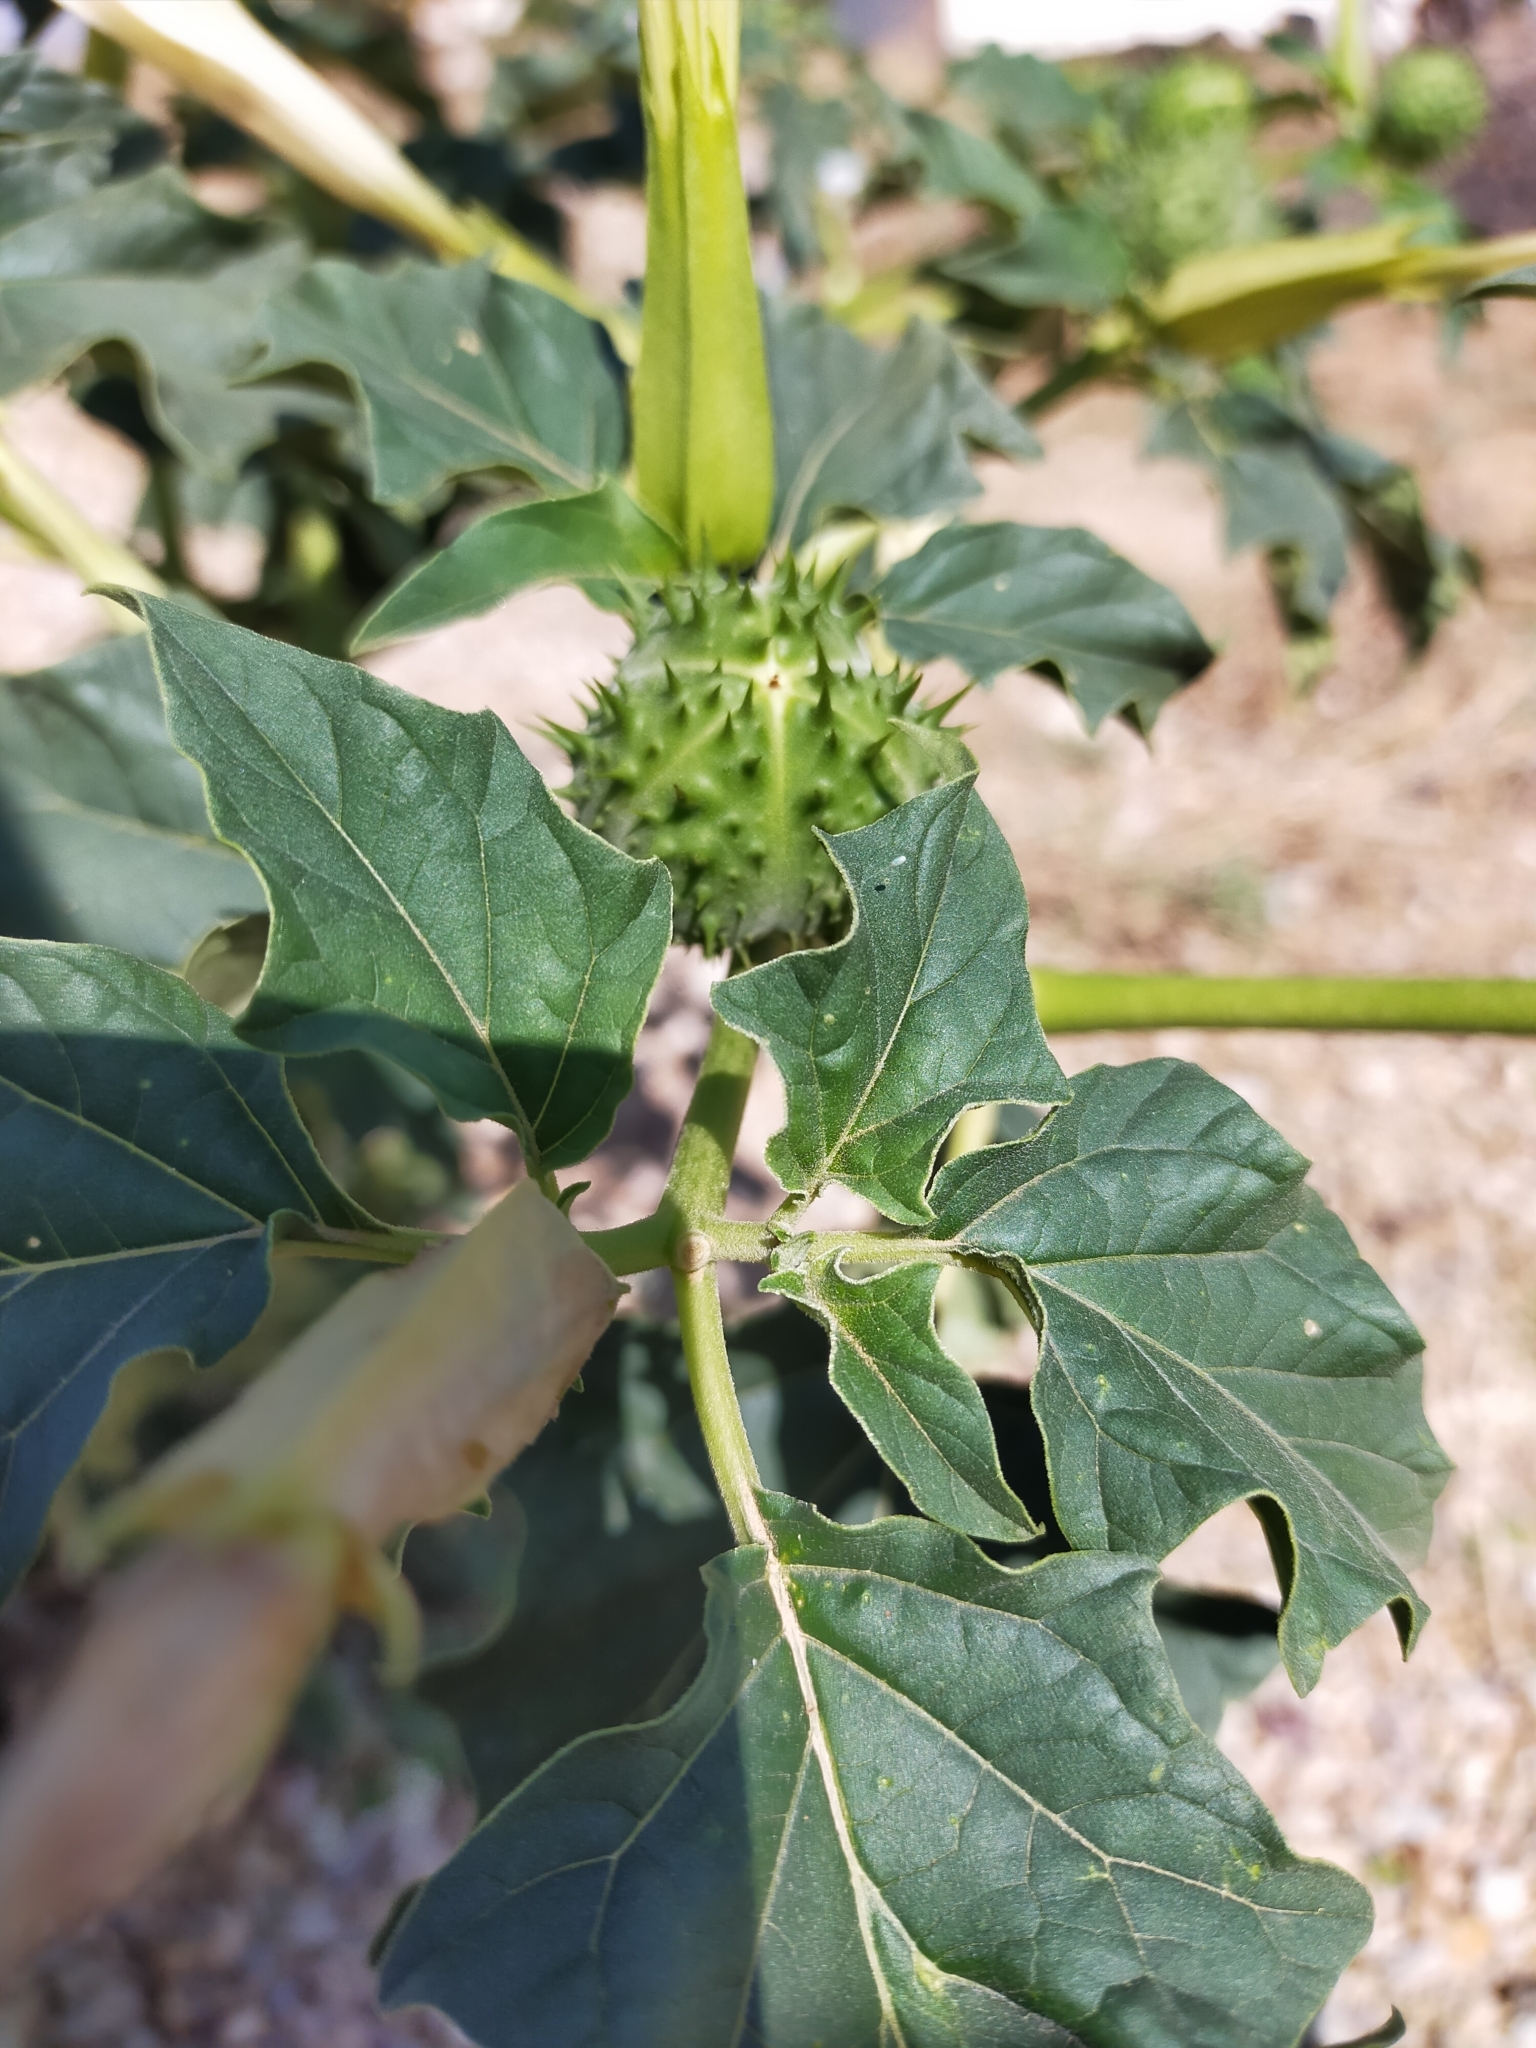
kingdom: Plantae
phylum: Tracheophyta
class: Magnoliopsida
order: Solanales
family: Solanaceae
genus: Datura
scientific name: Datura stramonium
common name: Thorn-apple
